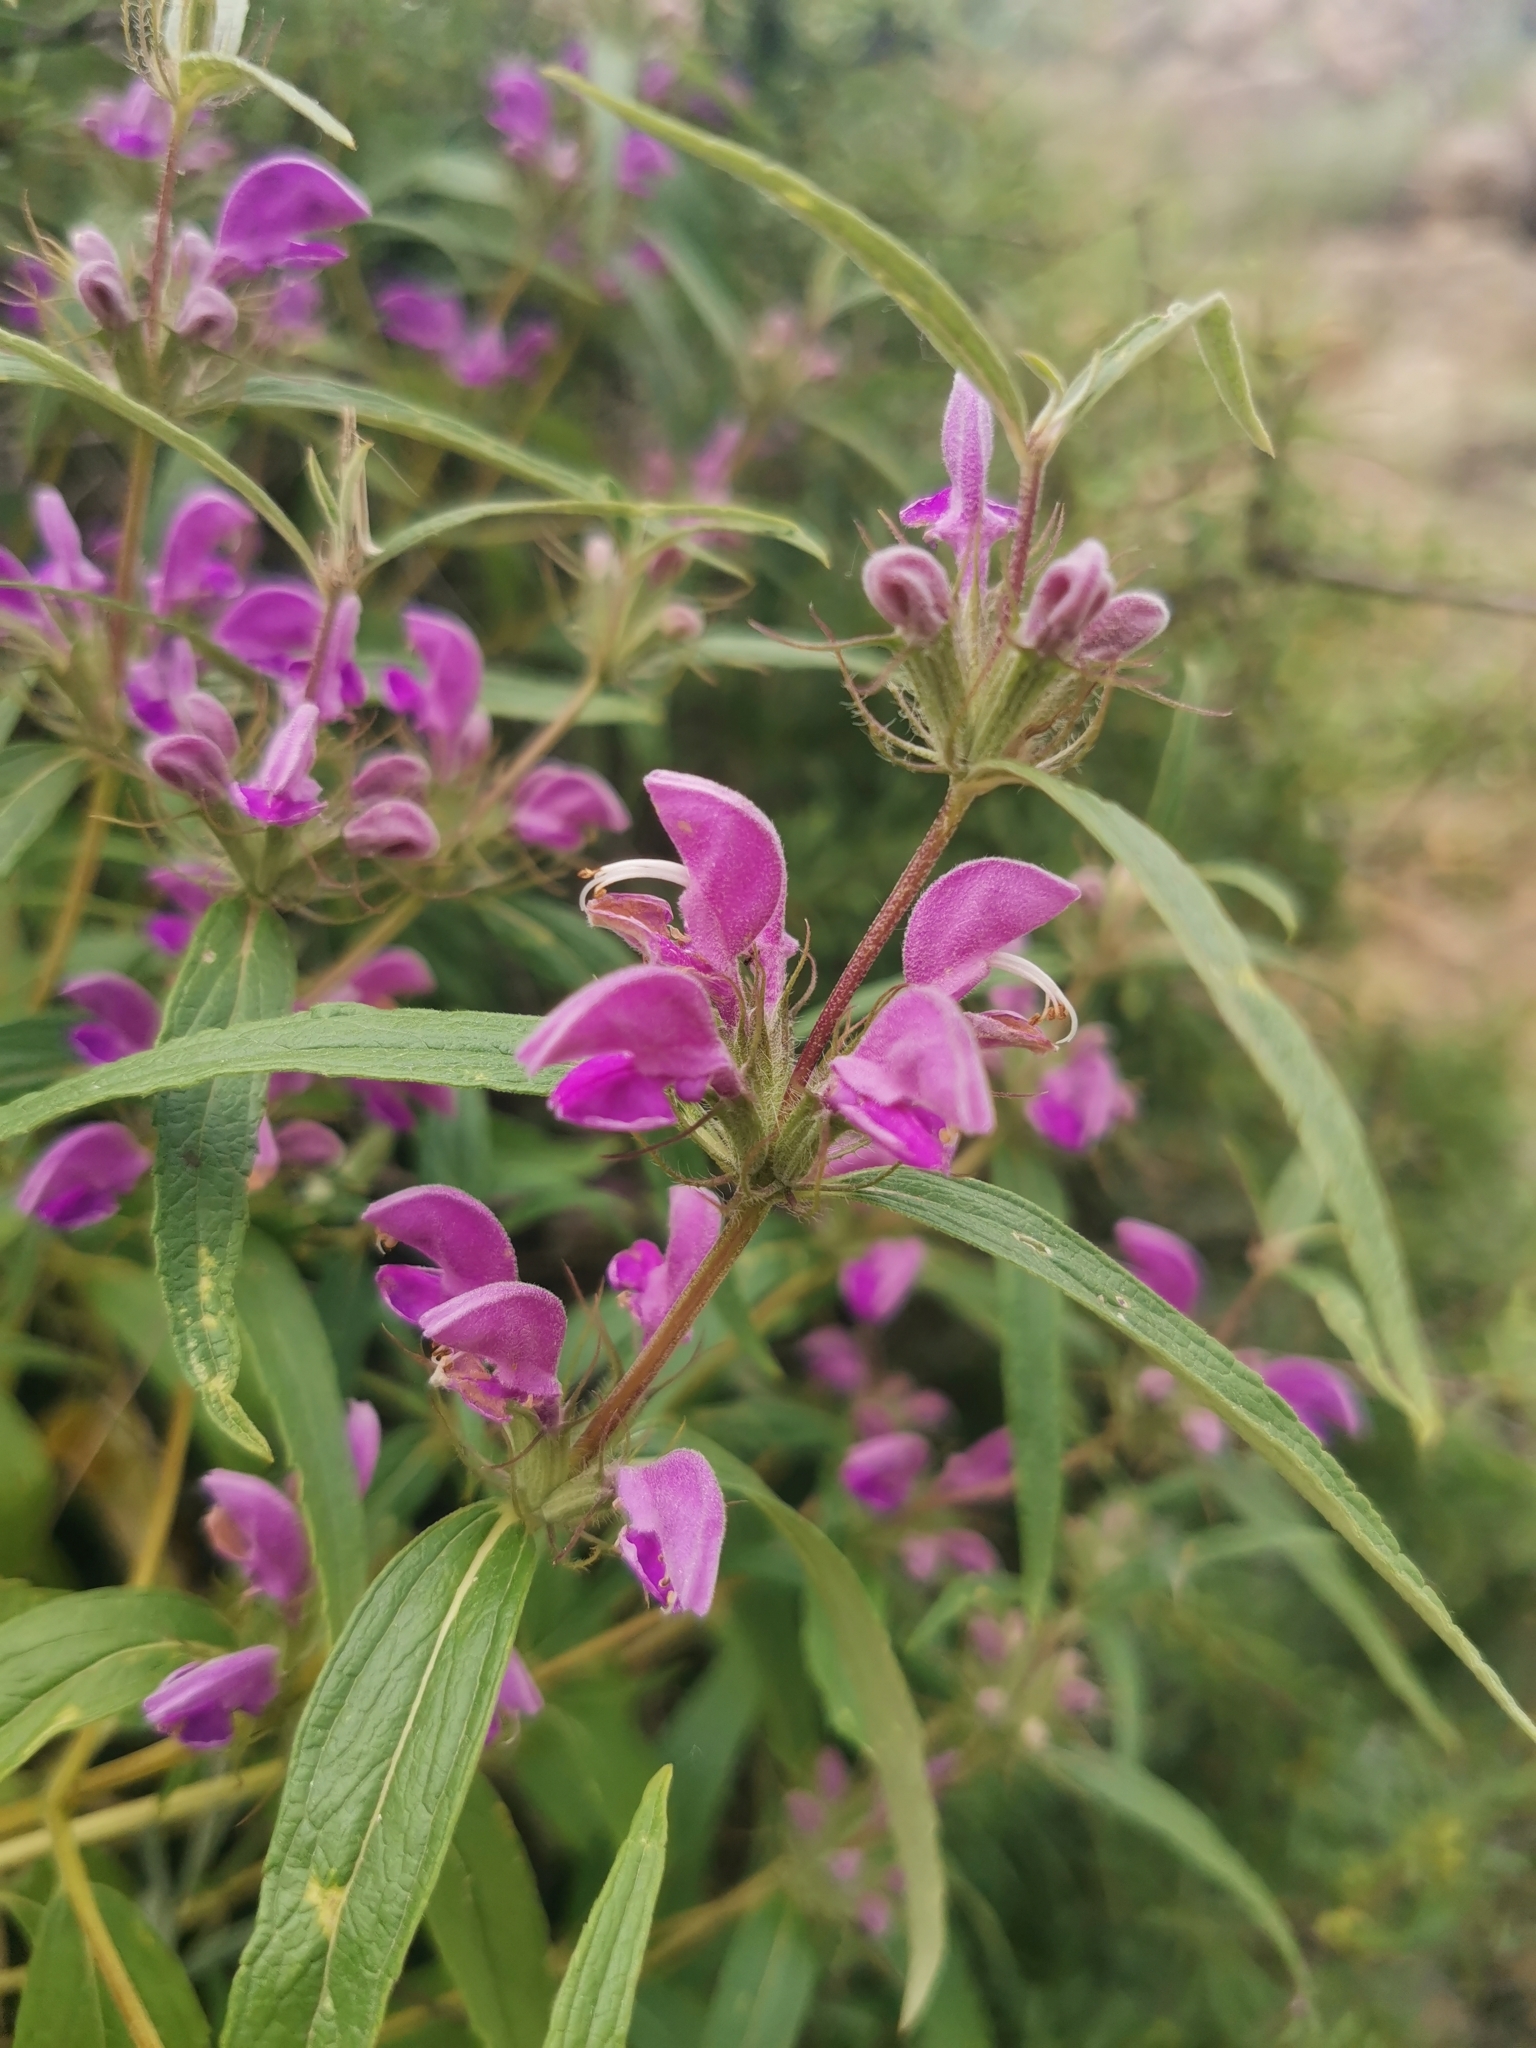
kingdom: Plantae
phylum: Tracheophyta
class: Magnoliopsida
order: Lamiales
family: Lamiaceae
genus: Phlomis
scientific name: Phlomis herba-venti
